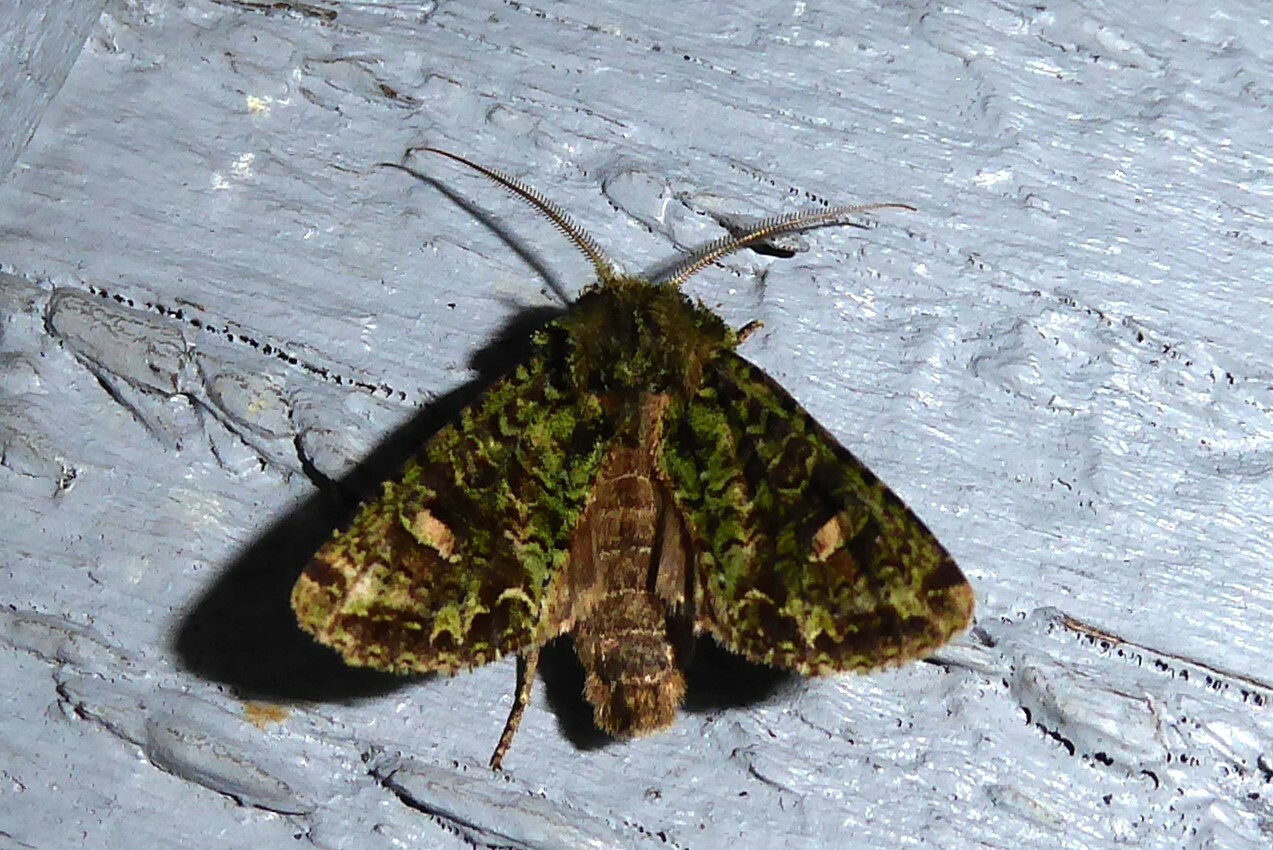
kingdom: Animalia
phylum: Arthropoda
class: Insecta
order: Lepidoptera
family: Noctuidae
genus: Ichneutica
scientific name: Ichneutica
